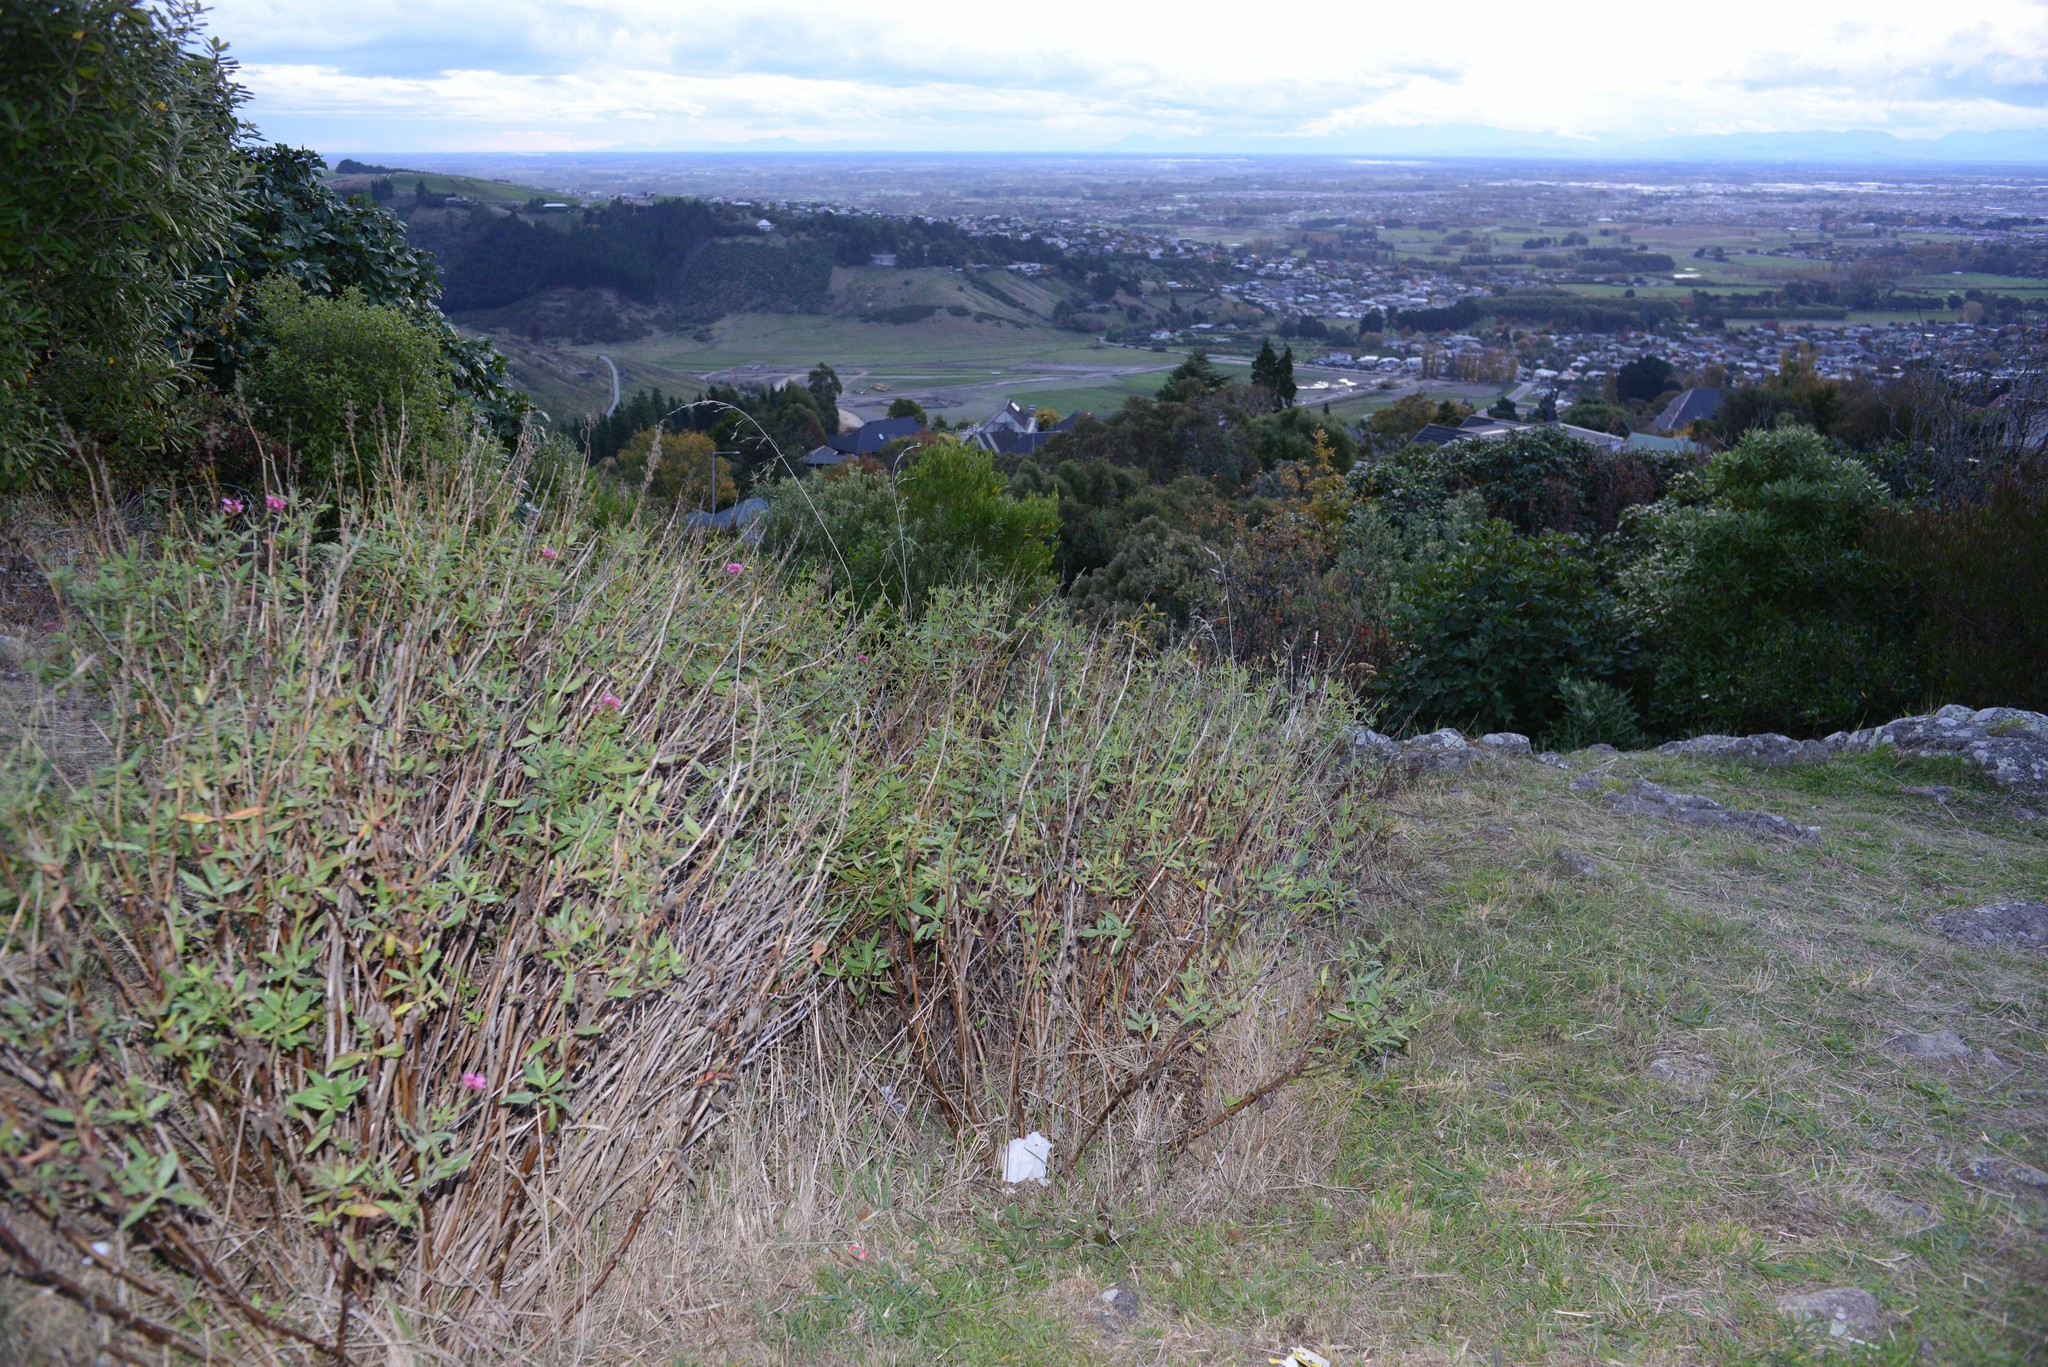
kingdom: Plantae
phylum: Tracheophyta
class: Magnoliopsida
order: Dipsacales
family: Caprifoliaceae
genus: Centranthus
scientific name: Centranthus ruber
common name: Red valerian
